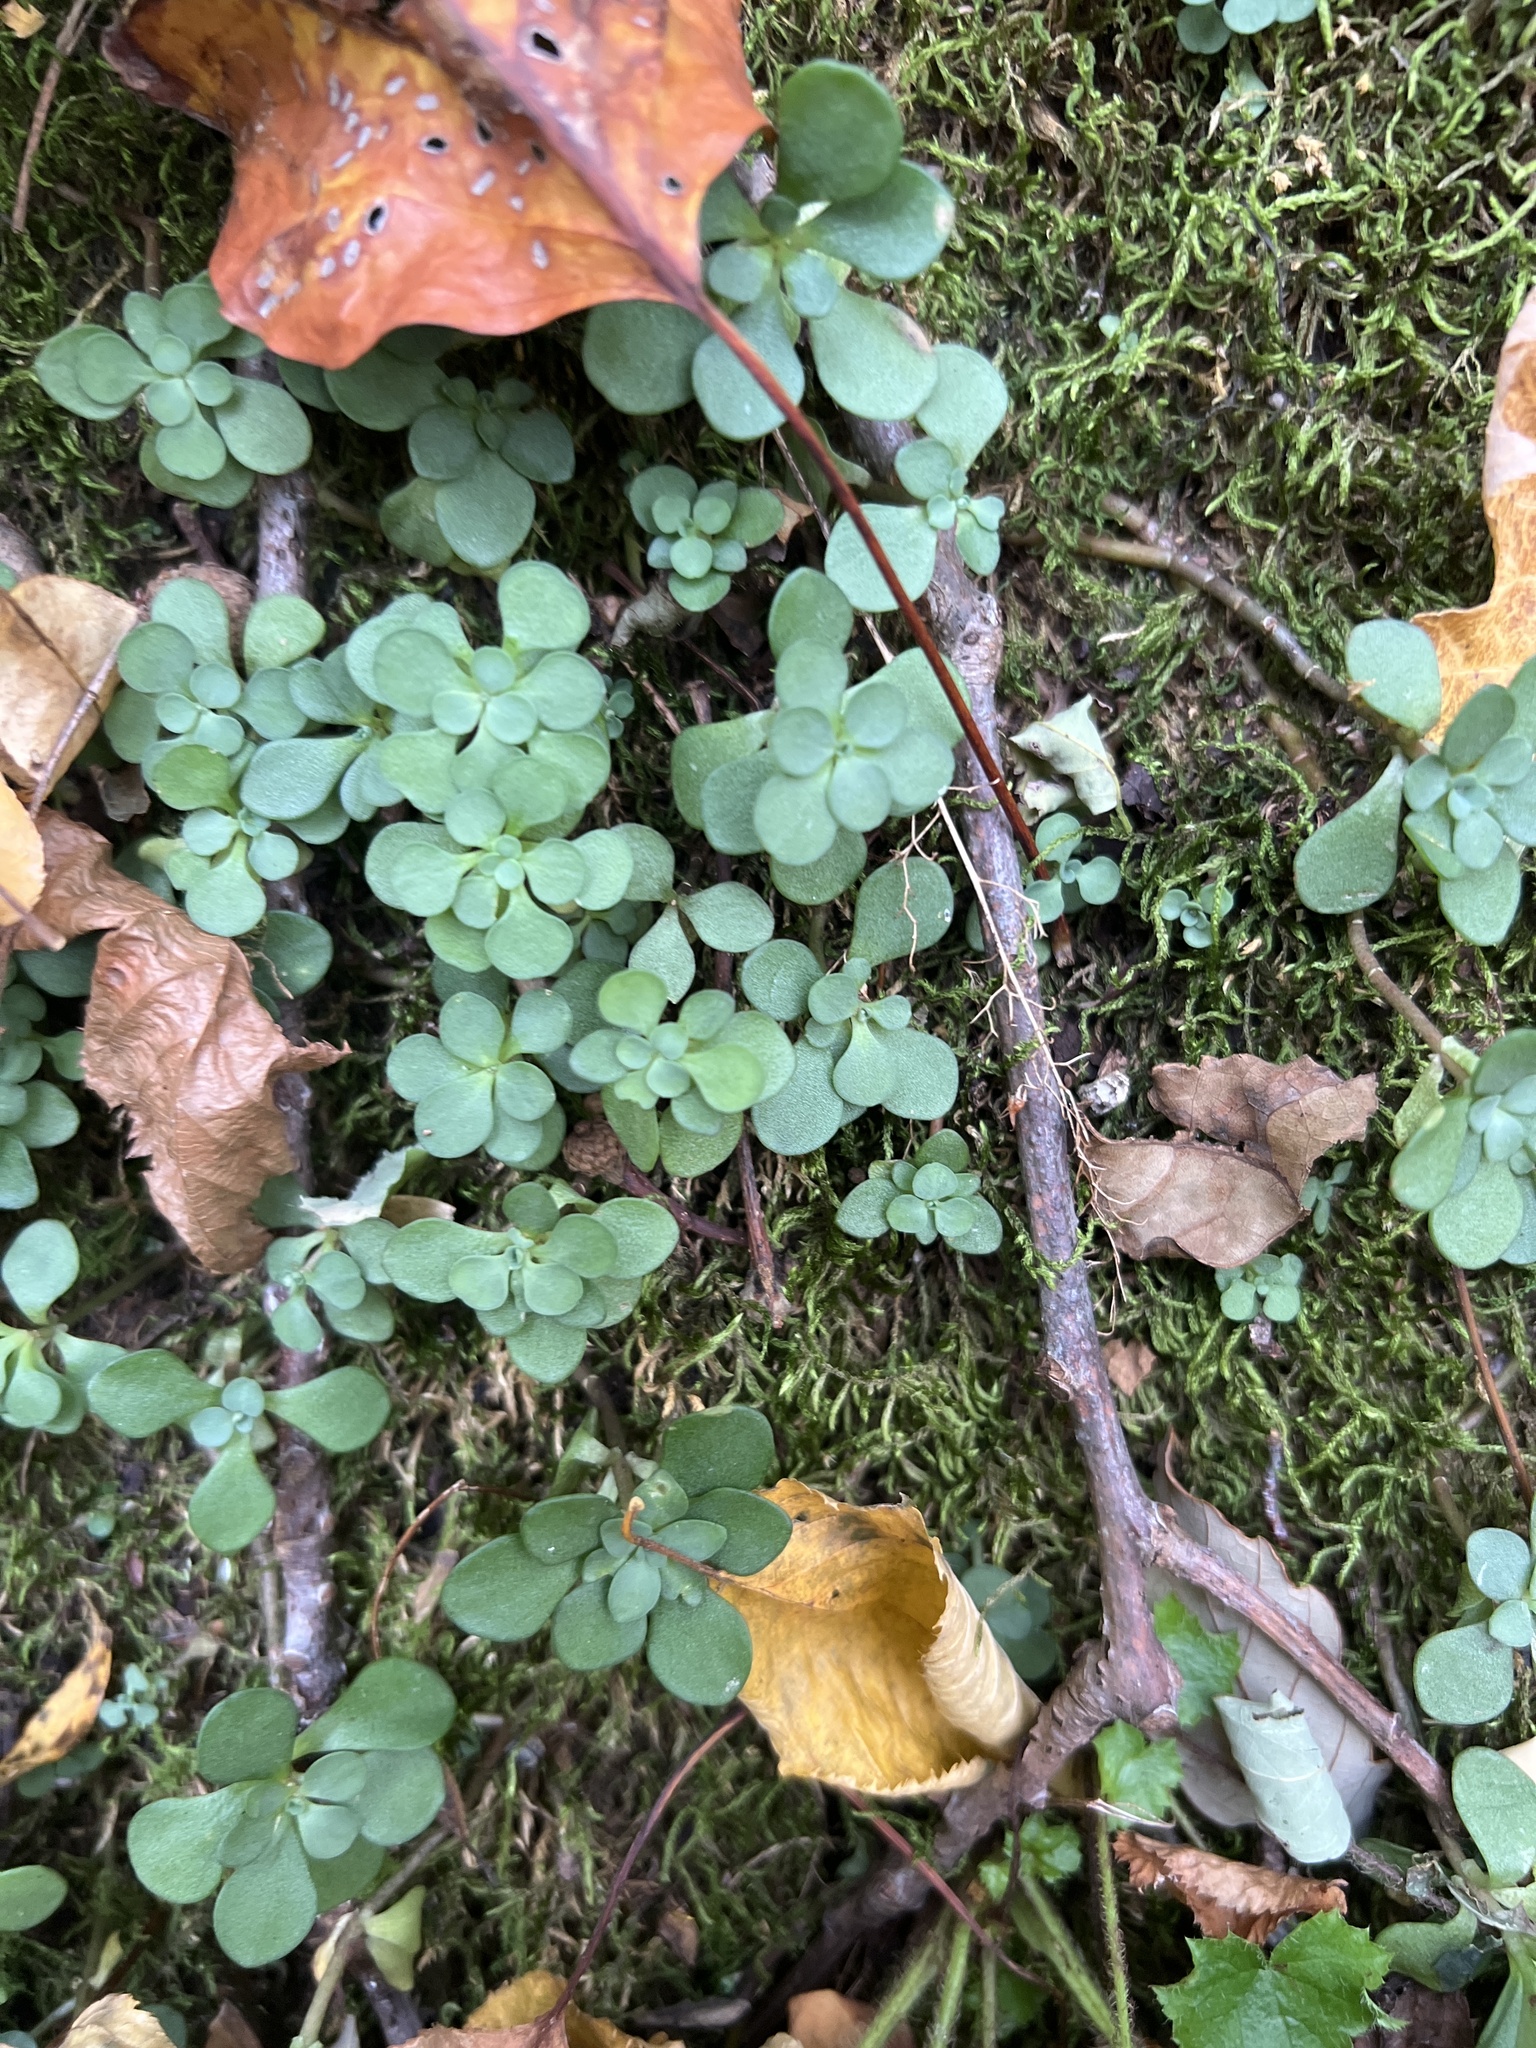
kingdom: Plantae
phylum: Tracheophyta
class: Magnoliopsida
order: Saxifragales
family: Crassulaceae
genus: Sedum
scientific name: Sedum ternatum
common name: Wild stonecrop
